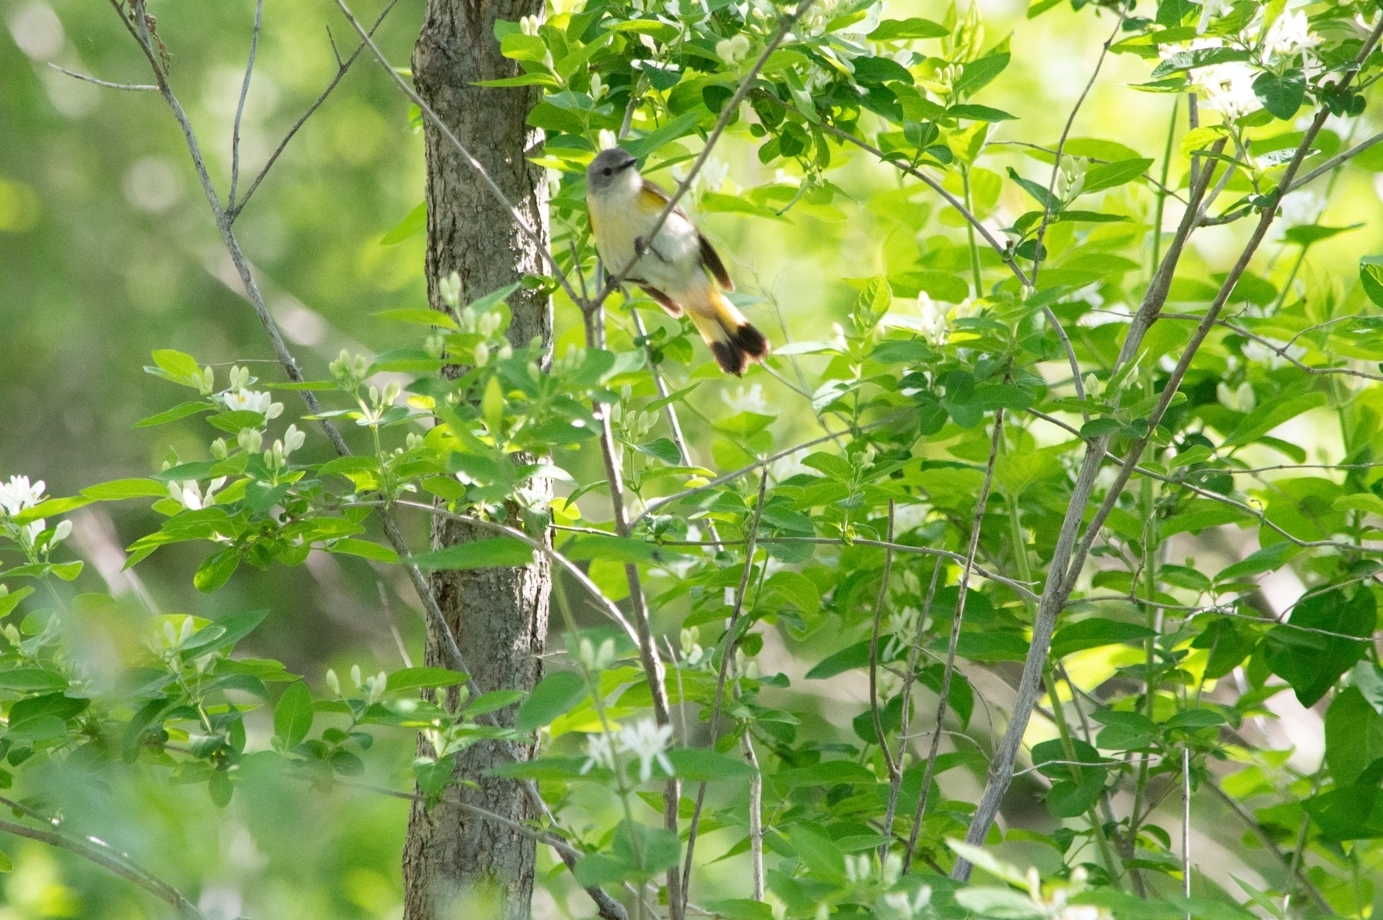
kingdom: Animalia
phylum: Chordata
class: Aves
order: Passeriformes
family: Parulidae
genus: Setophaga
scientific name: Setophaga ruticilla
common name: American redstart
